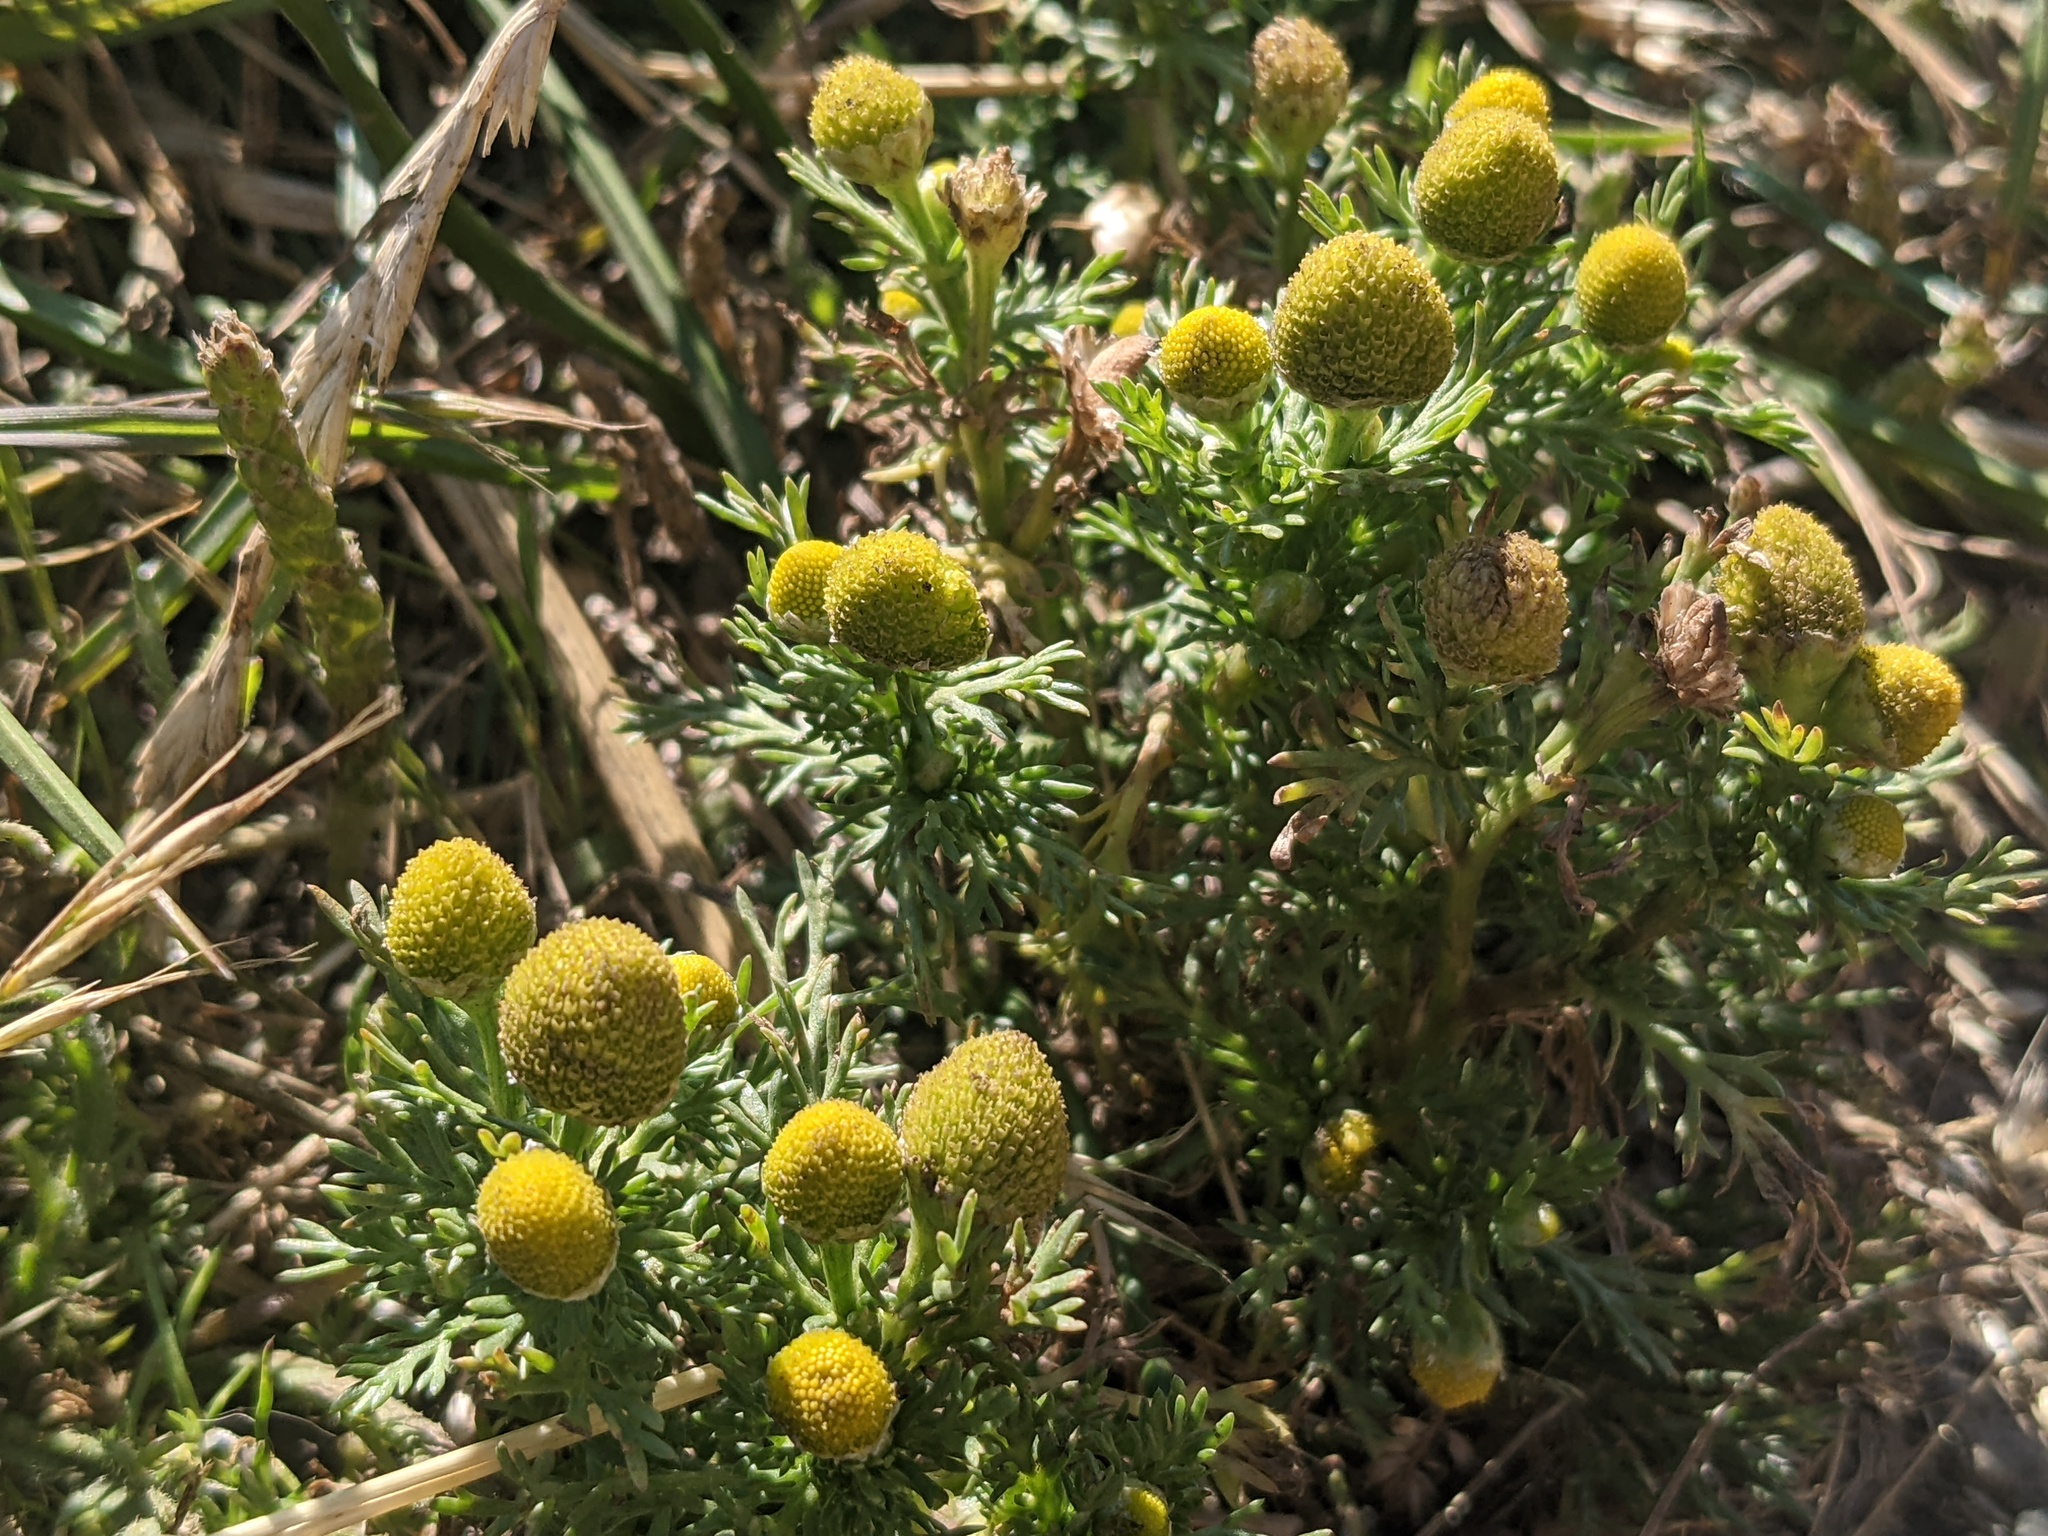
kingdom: Plantae
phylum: Tracheophyta
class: Magnoliopsida
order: Asterales
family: Asteraceae
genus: Matricaria
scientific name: Matricaria discoidea
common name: Disc mayweed
